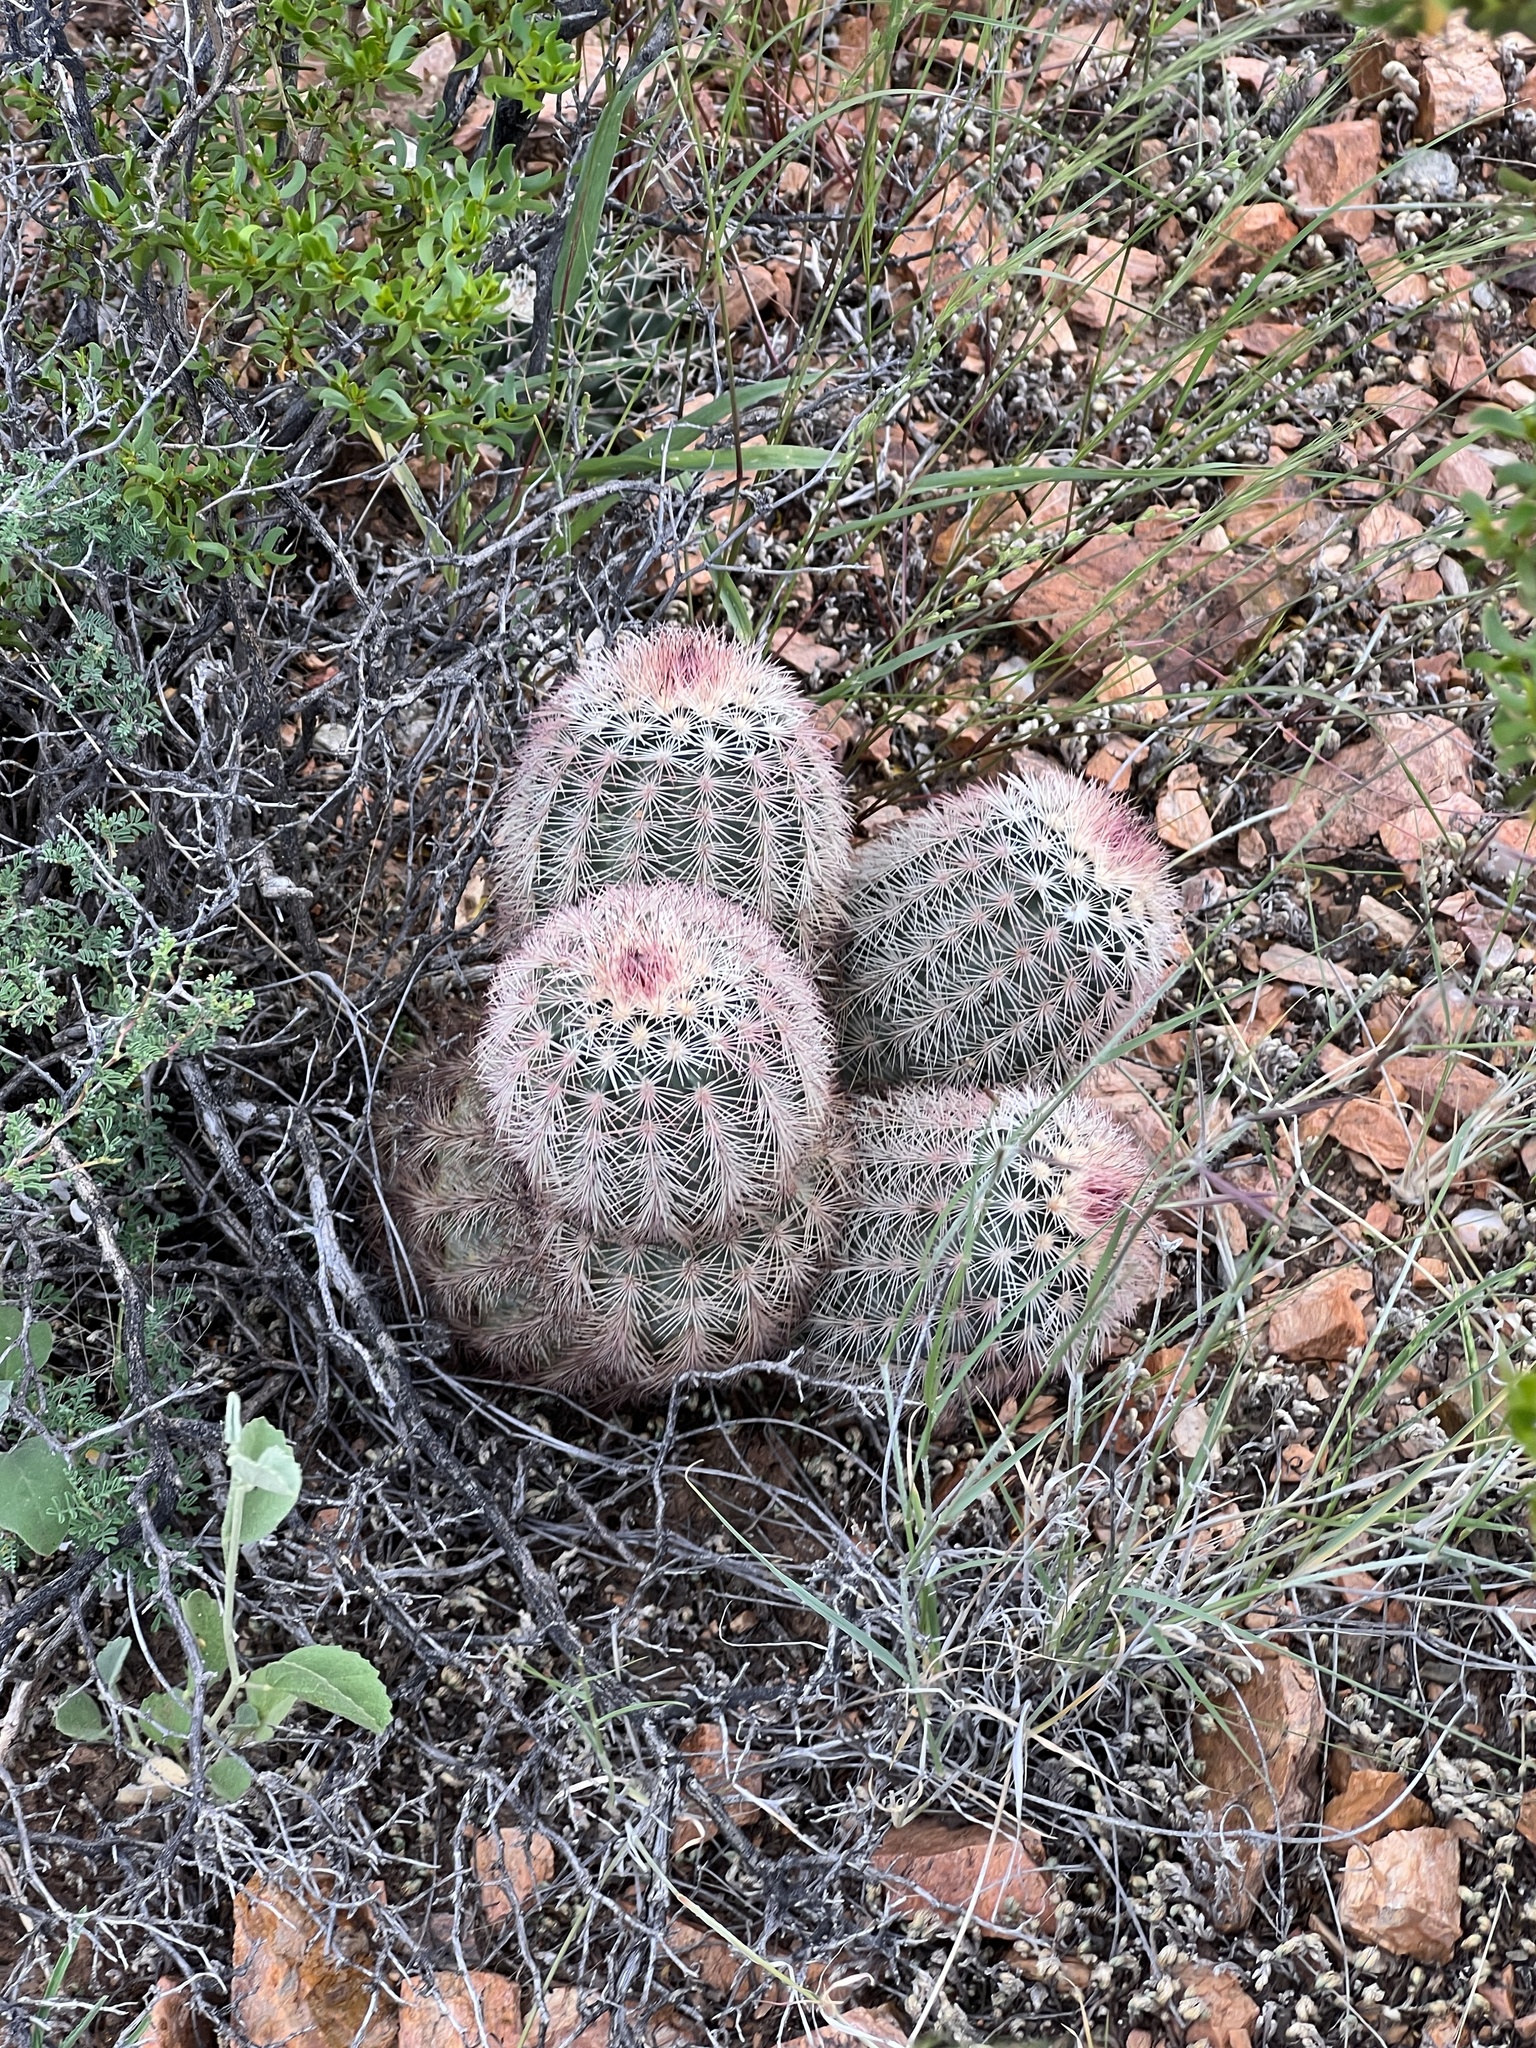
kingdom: Plantae
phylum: Tracheophyta
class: Magnoliopsida
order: Caryophyllales
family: Cactaceae
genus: Echinocereus
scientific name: Echinocereus dasyacanthus
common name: Spiny hedgehog cactus
